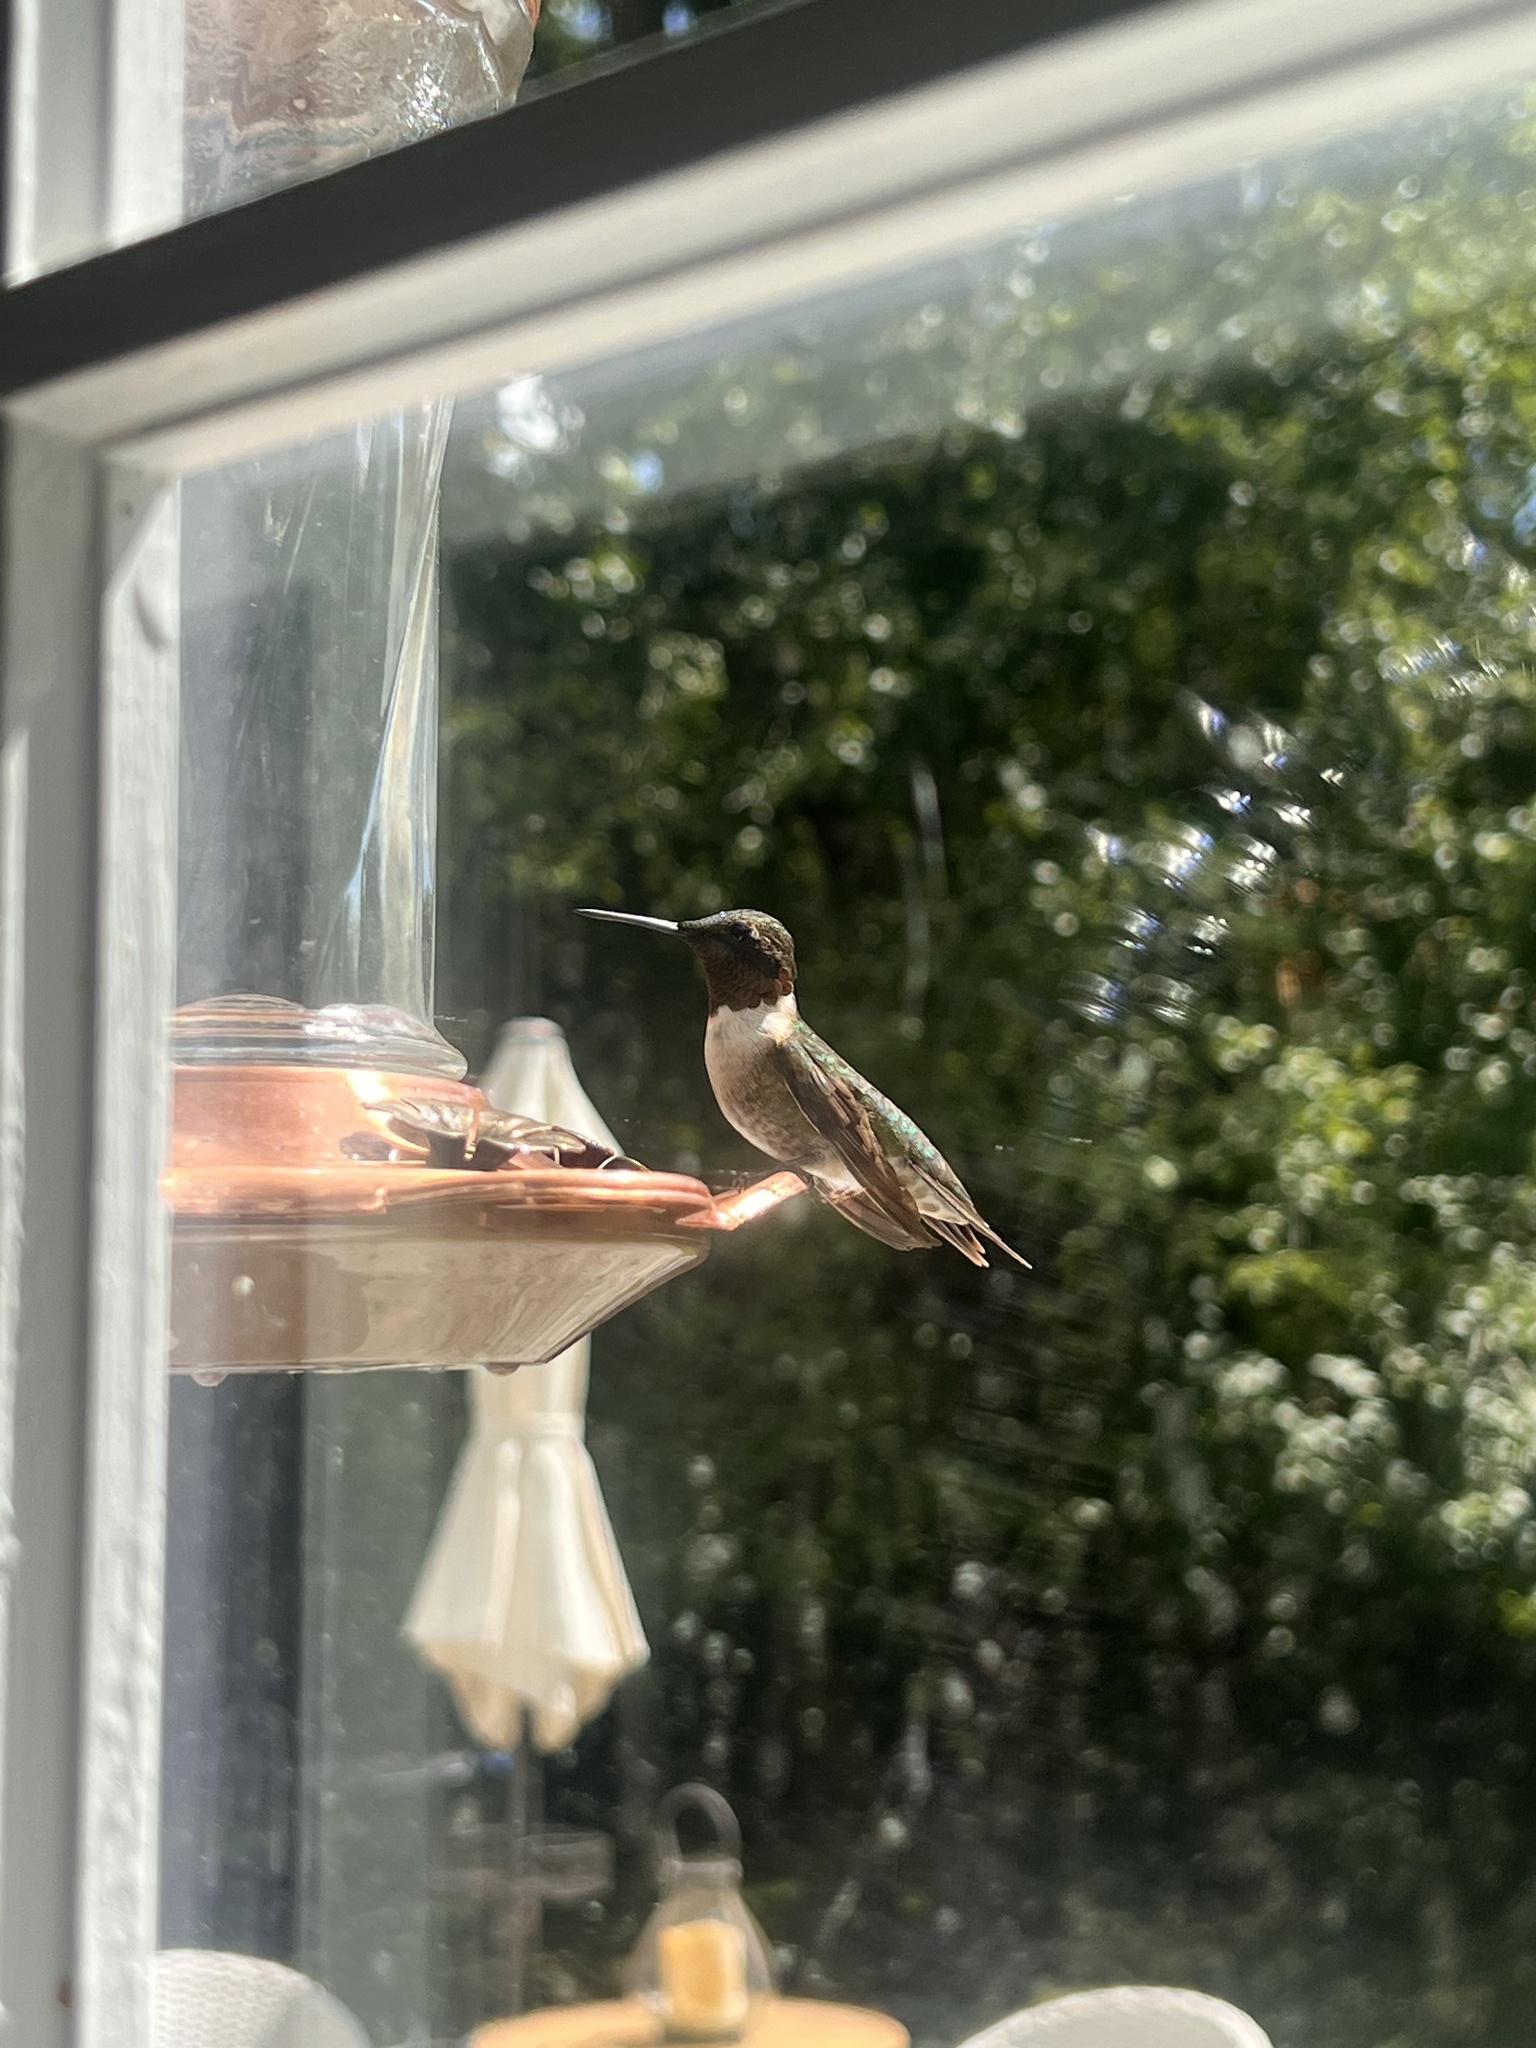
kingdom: Animalia
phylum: Chordata
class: Aves
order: Apodiformes
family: Trochilidae
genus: Archilochus
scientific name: Archilochus colubris
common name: Ruby-throated hummingbird
